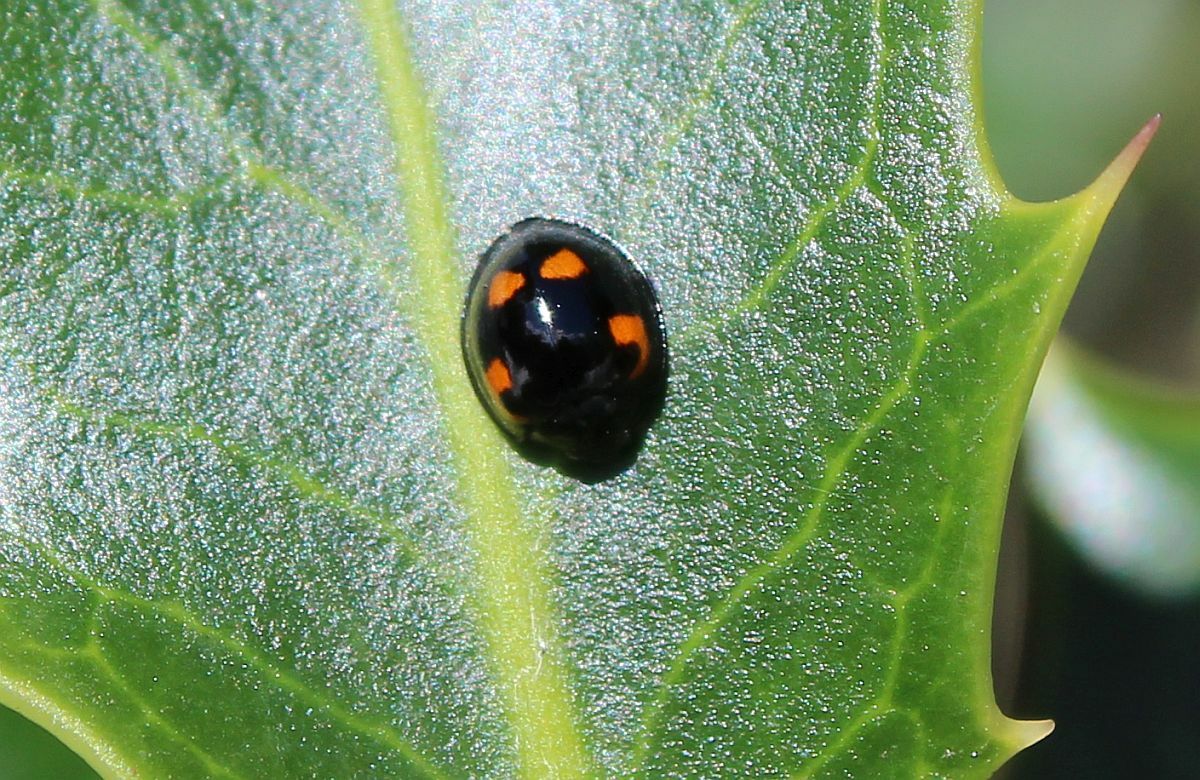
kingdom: Animalia
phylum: Arthropoda
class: Insecta
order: Coleoptera
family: Coccinellidae
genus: Brumus
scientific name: Brumus quadripustulatus
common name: Ladybird beetle
